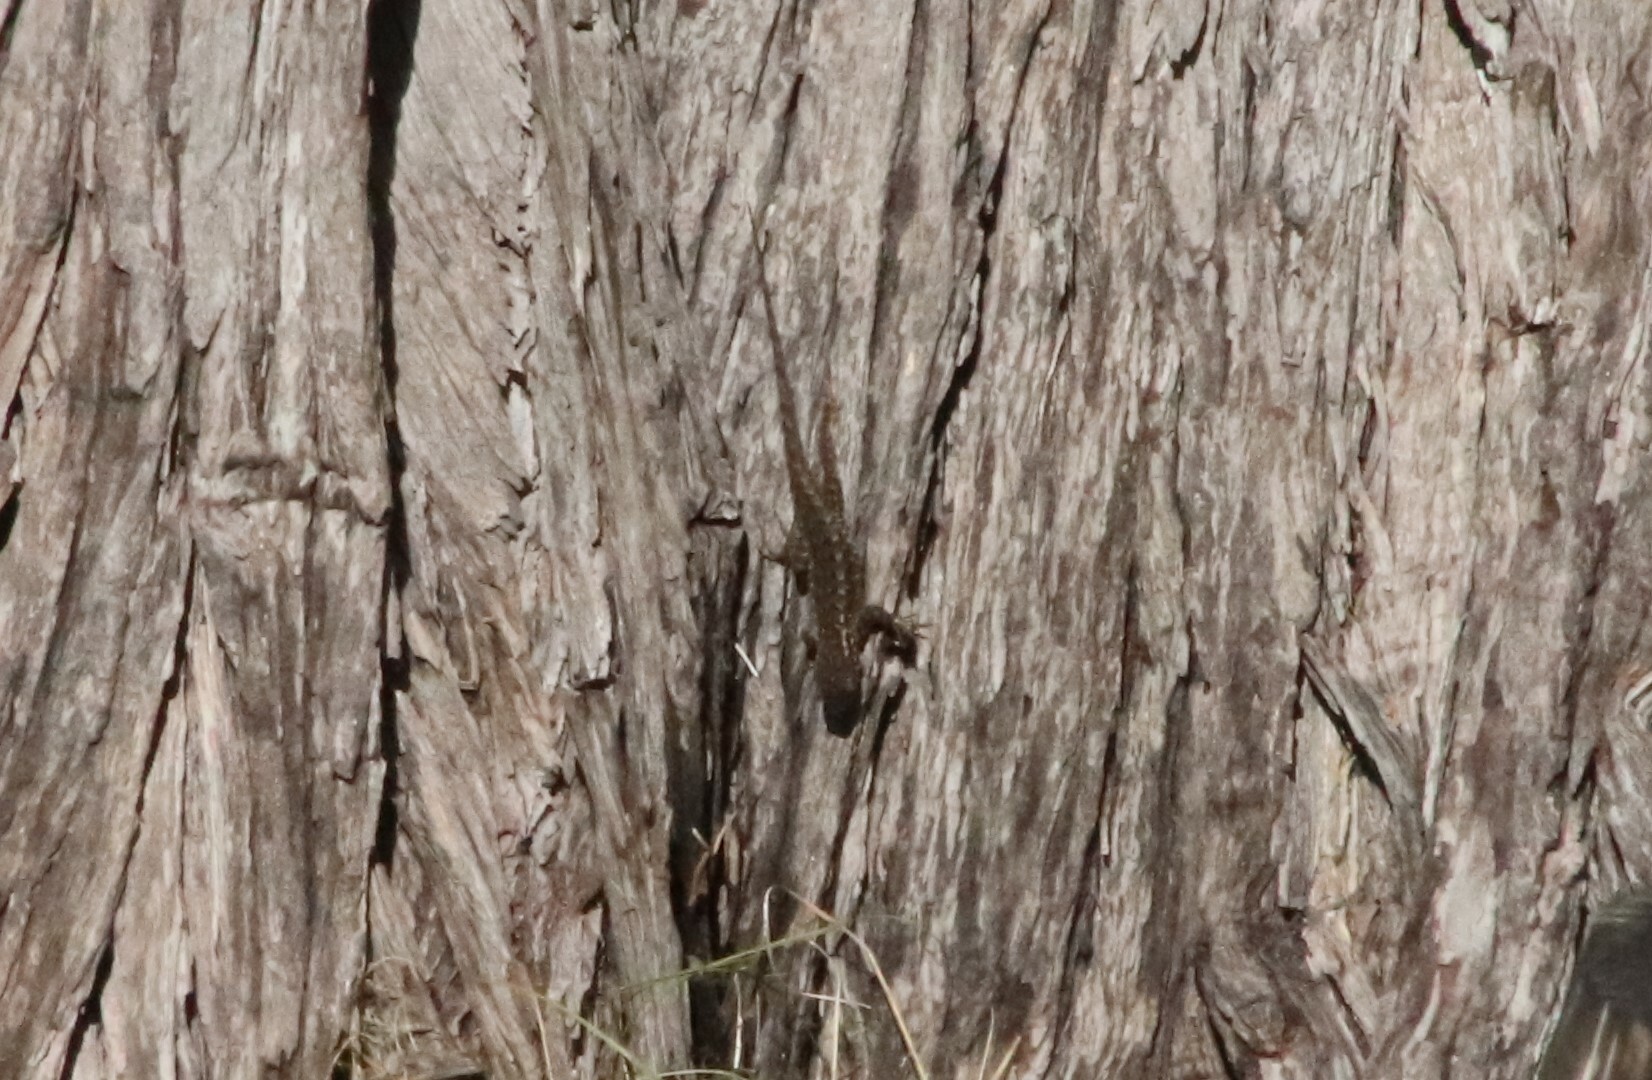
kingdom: Animalia
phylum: Chordata
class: Squamata
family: Phrynosomatidae
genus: Sceloporus
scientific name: Sceloporus occidentalis
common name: Western fence lizard
